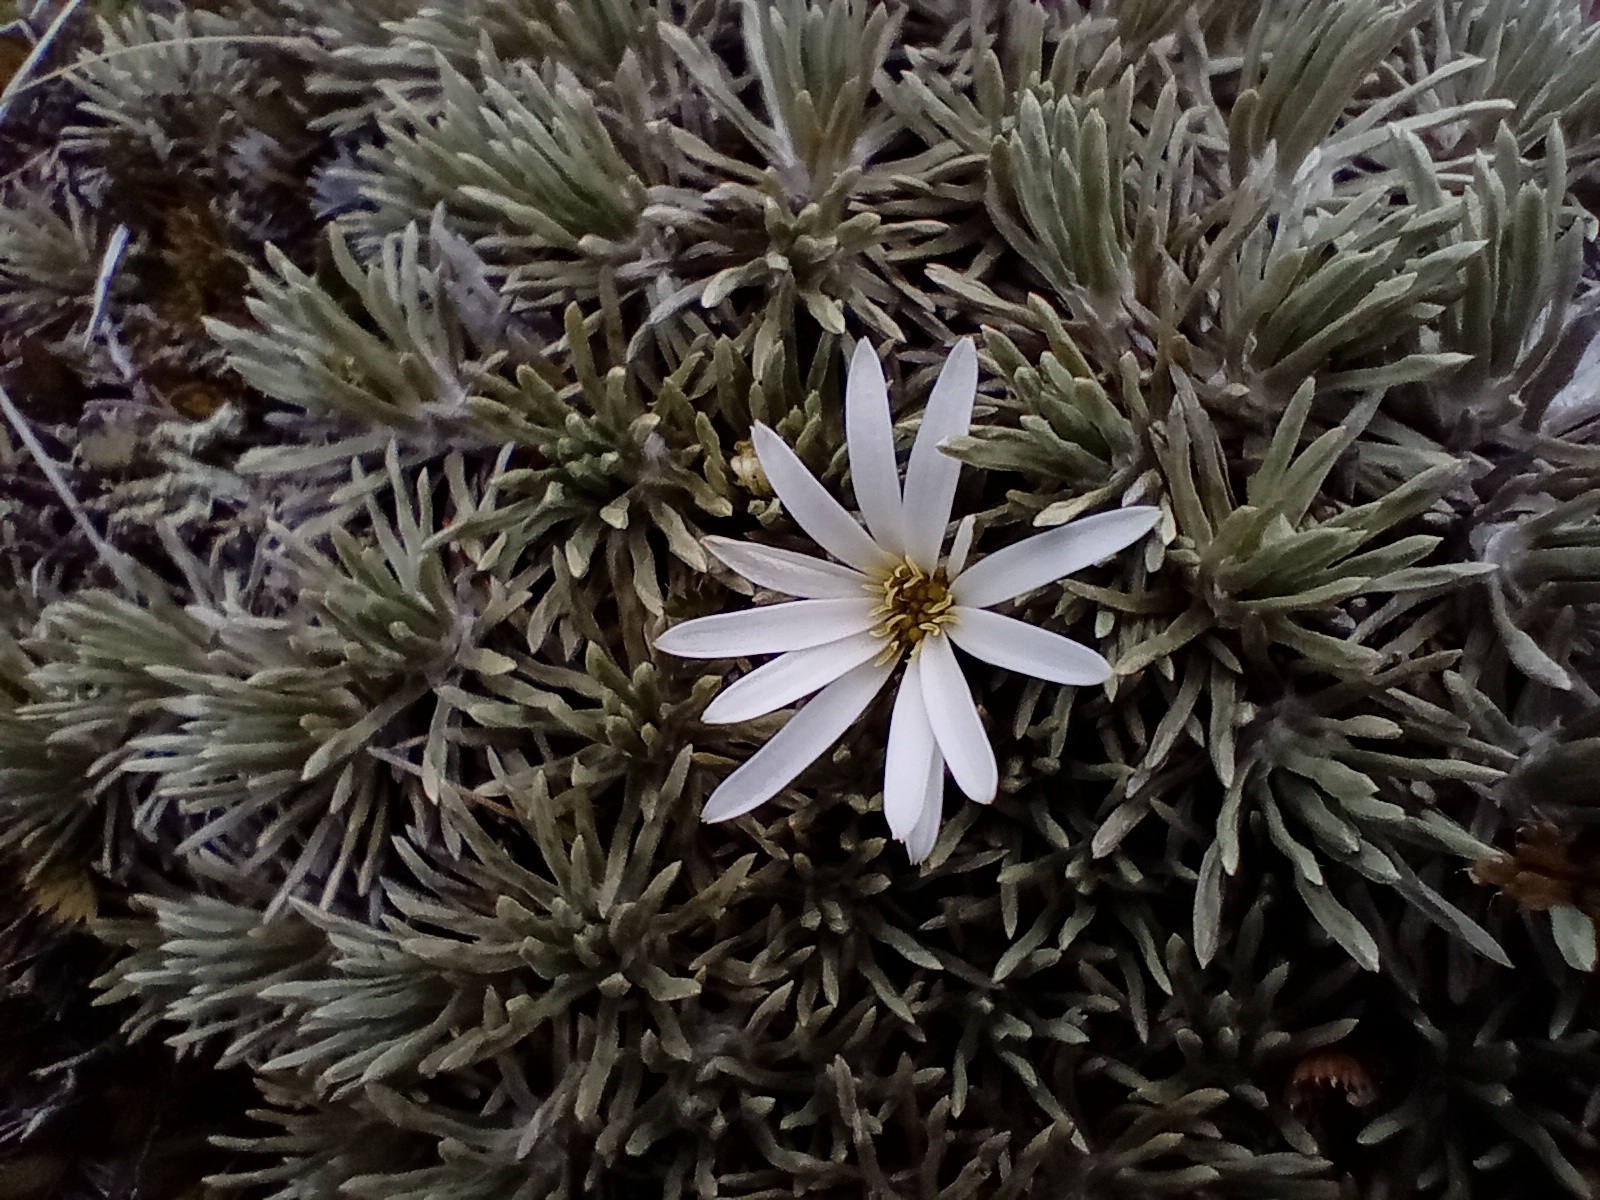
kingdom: Plantae
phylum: Tracheophyta
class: Magnoliopsida
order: Asterales
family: Asteraceae
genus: Celmisia
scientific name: Celmisia sessiliflora
